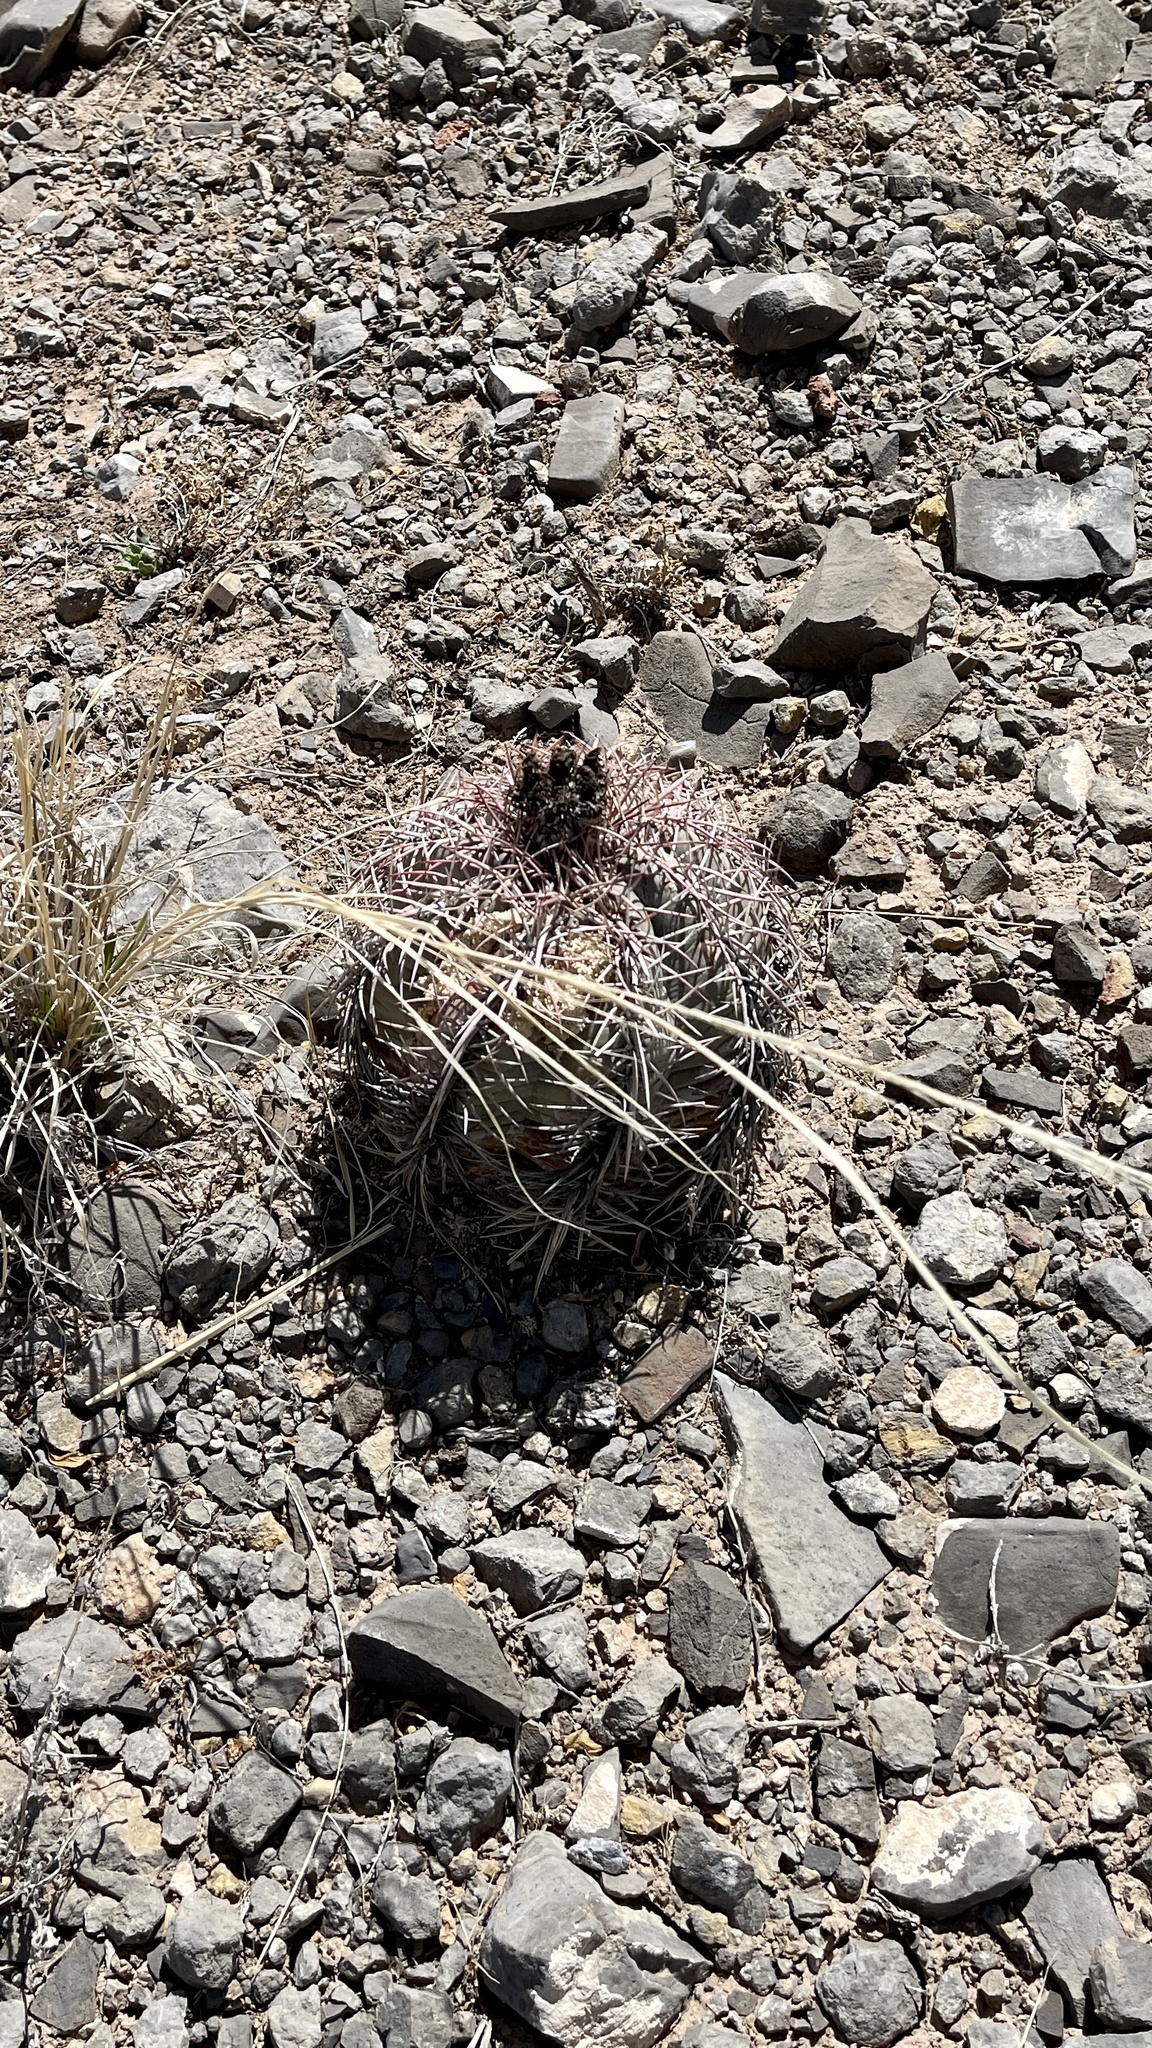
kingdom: Plantae
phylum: Tracheophyta
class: Magnoliopsida
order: Caryophyllales
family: Cactaceae
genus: Echinocactus
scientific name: Echinocactus horizonthalonius
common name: Devilshead
